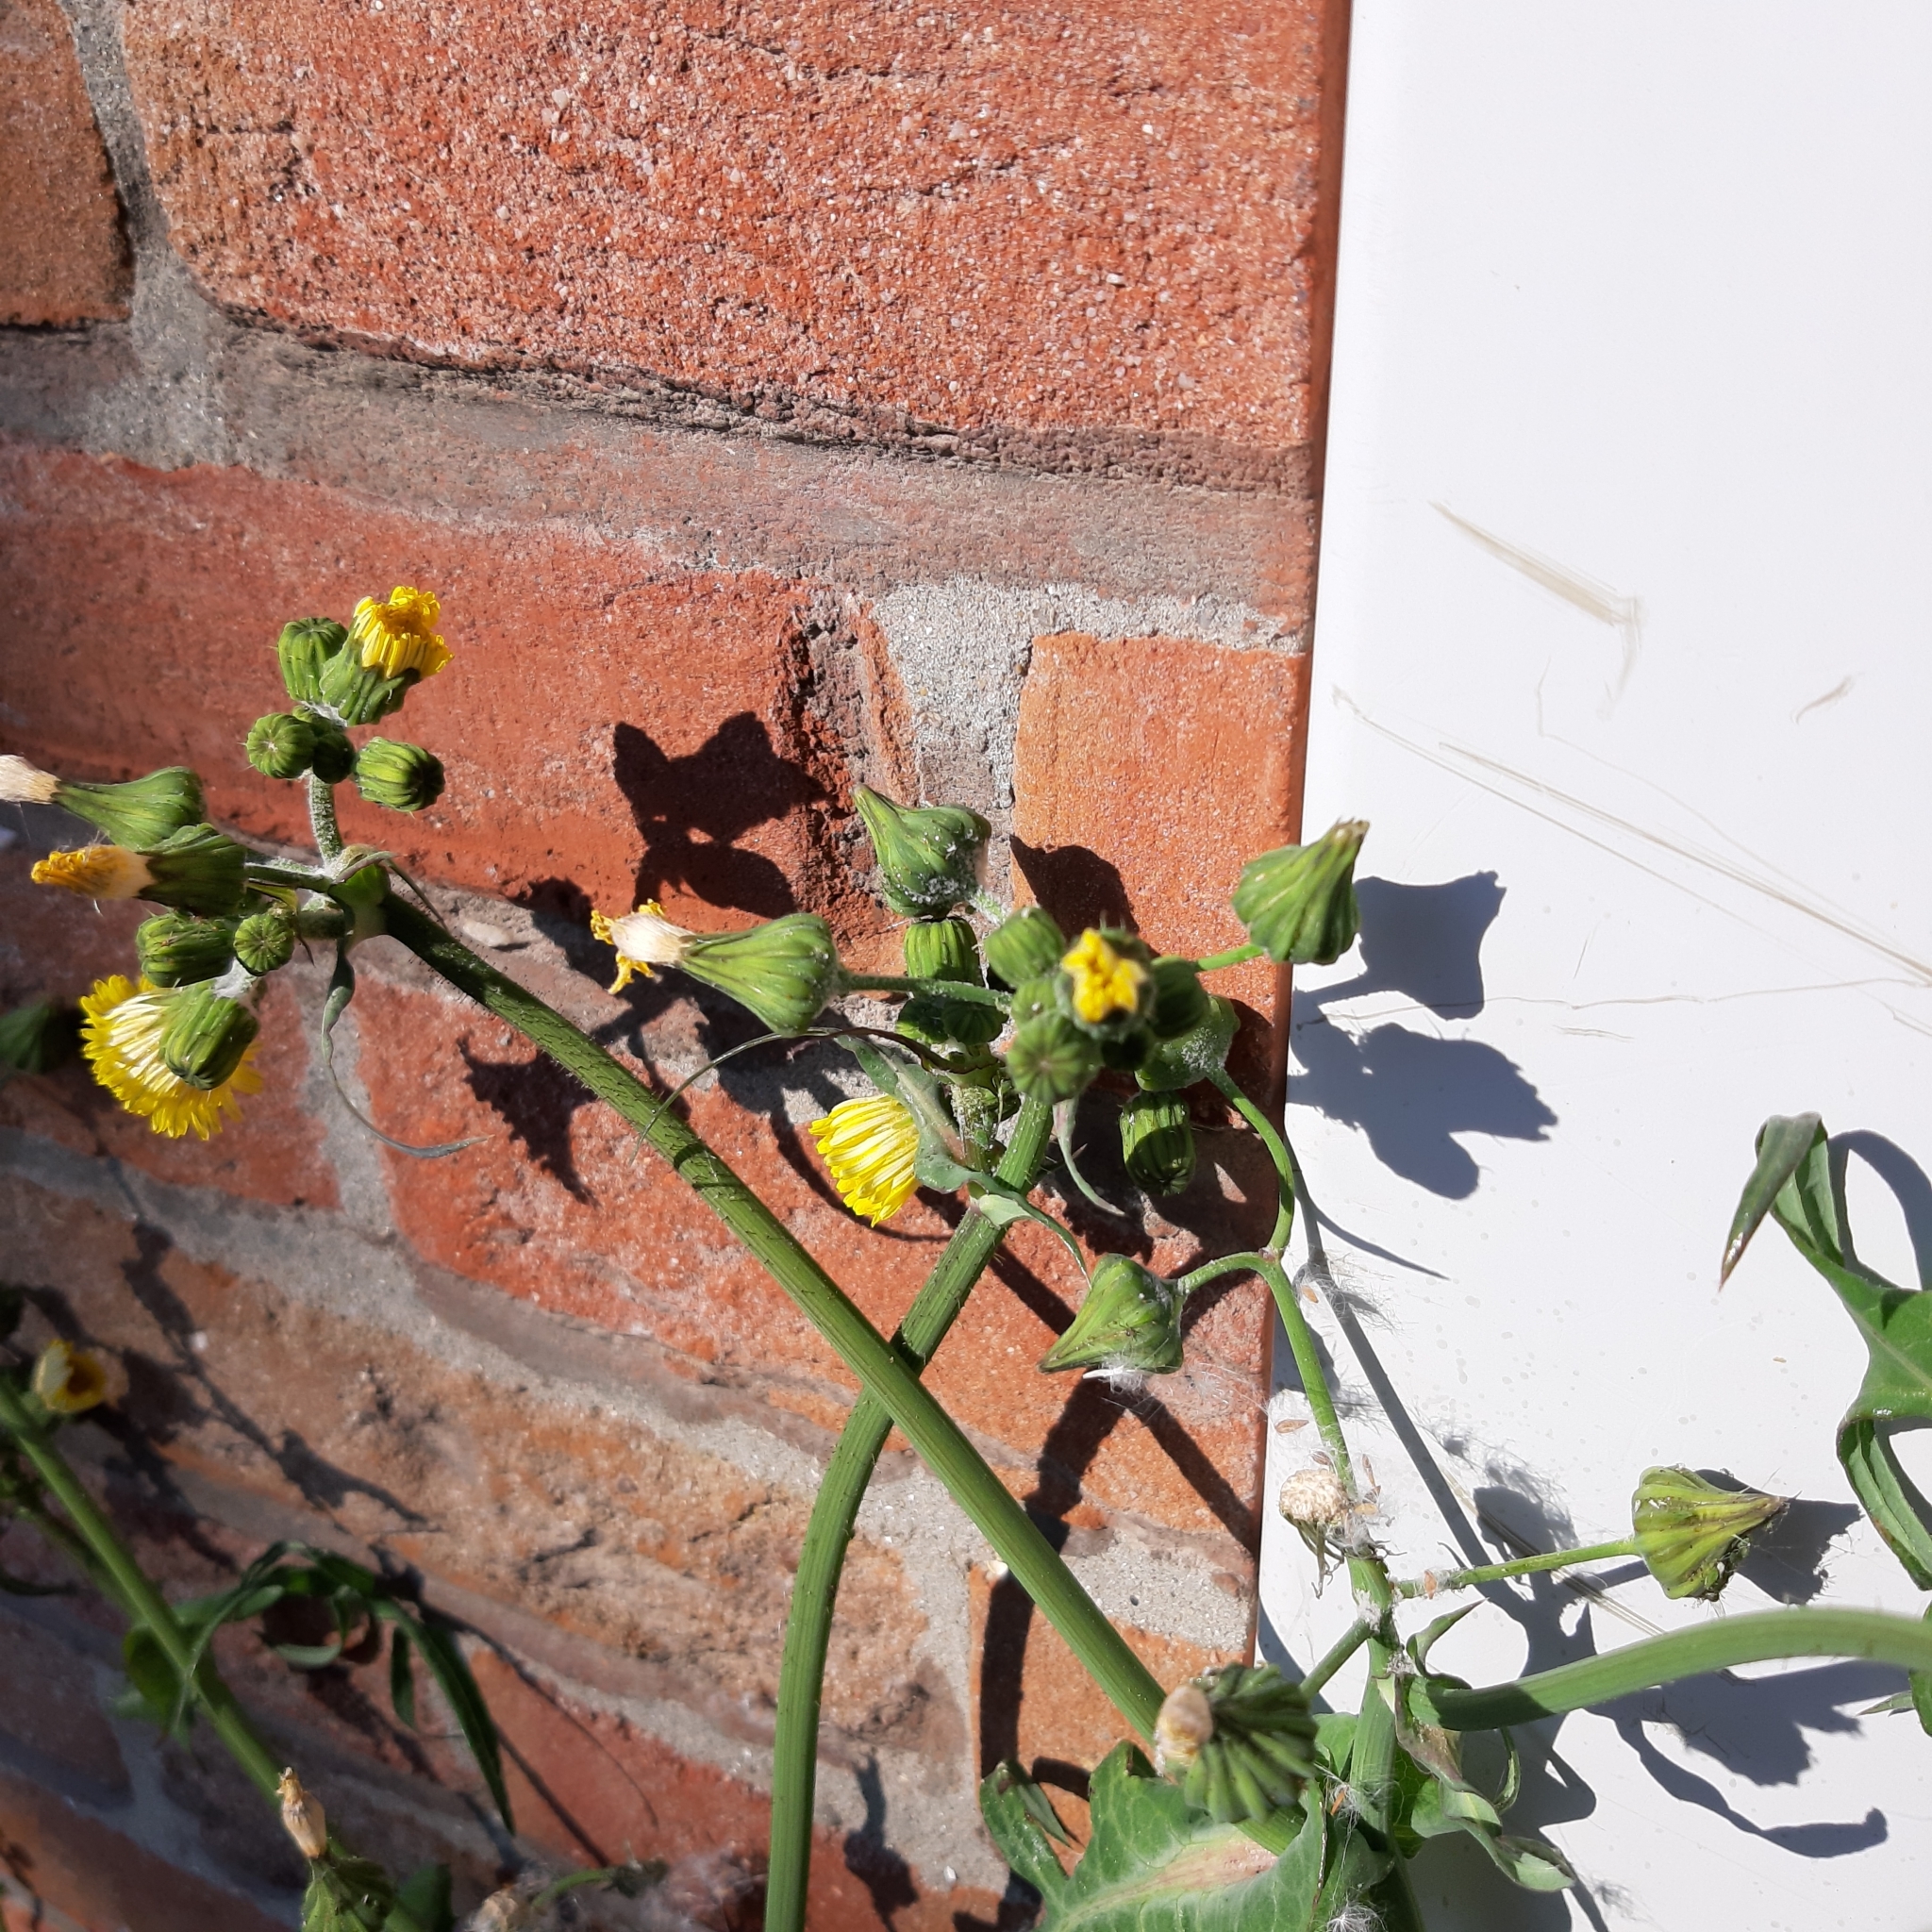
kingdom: Plantae
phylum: Tracheophyta
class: Magnoliopsida
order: Asterales
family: Asteraceae
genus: Sonchus
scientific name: Sonchus oleraceus
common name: Common sowthistle
